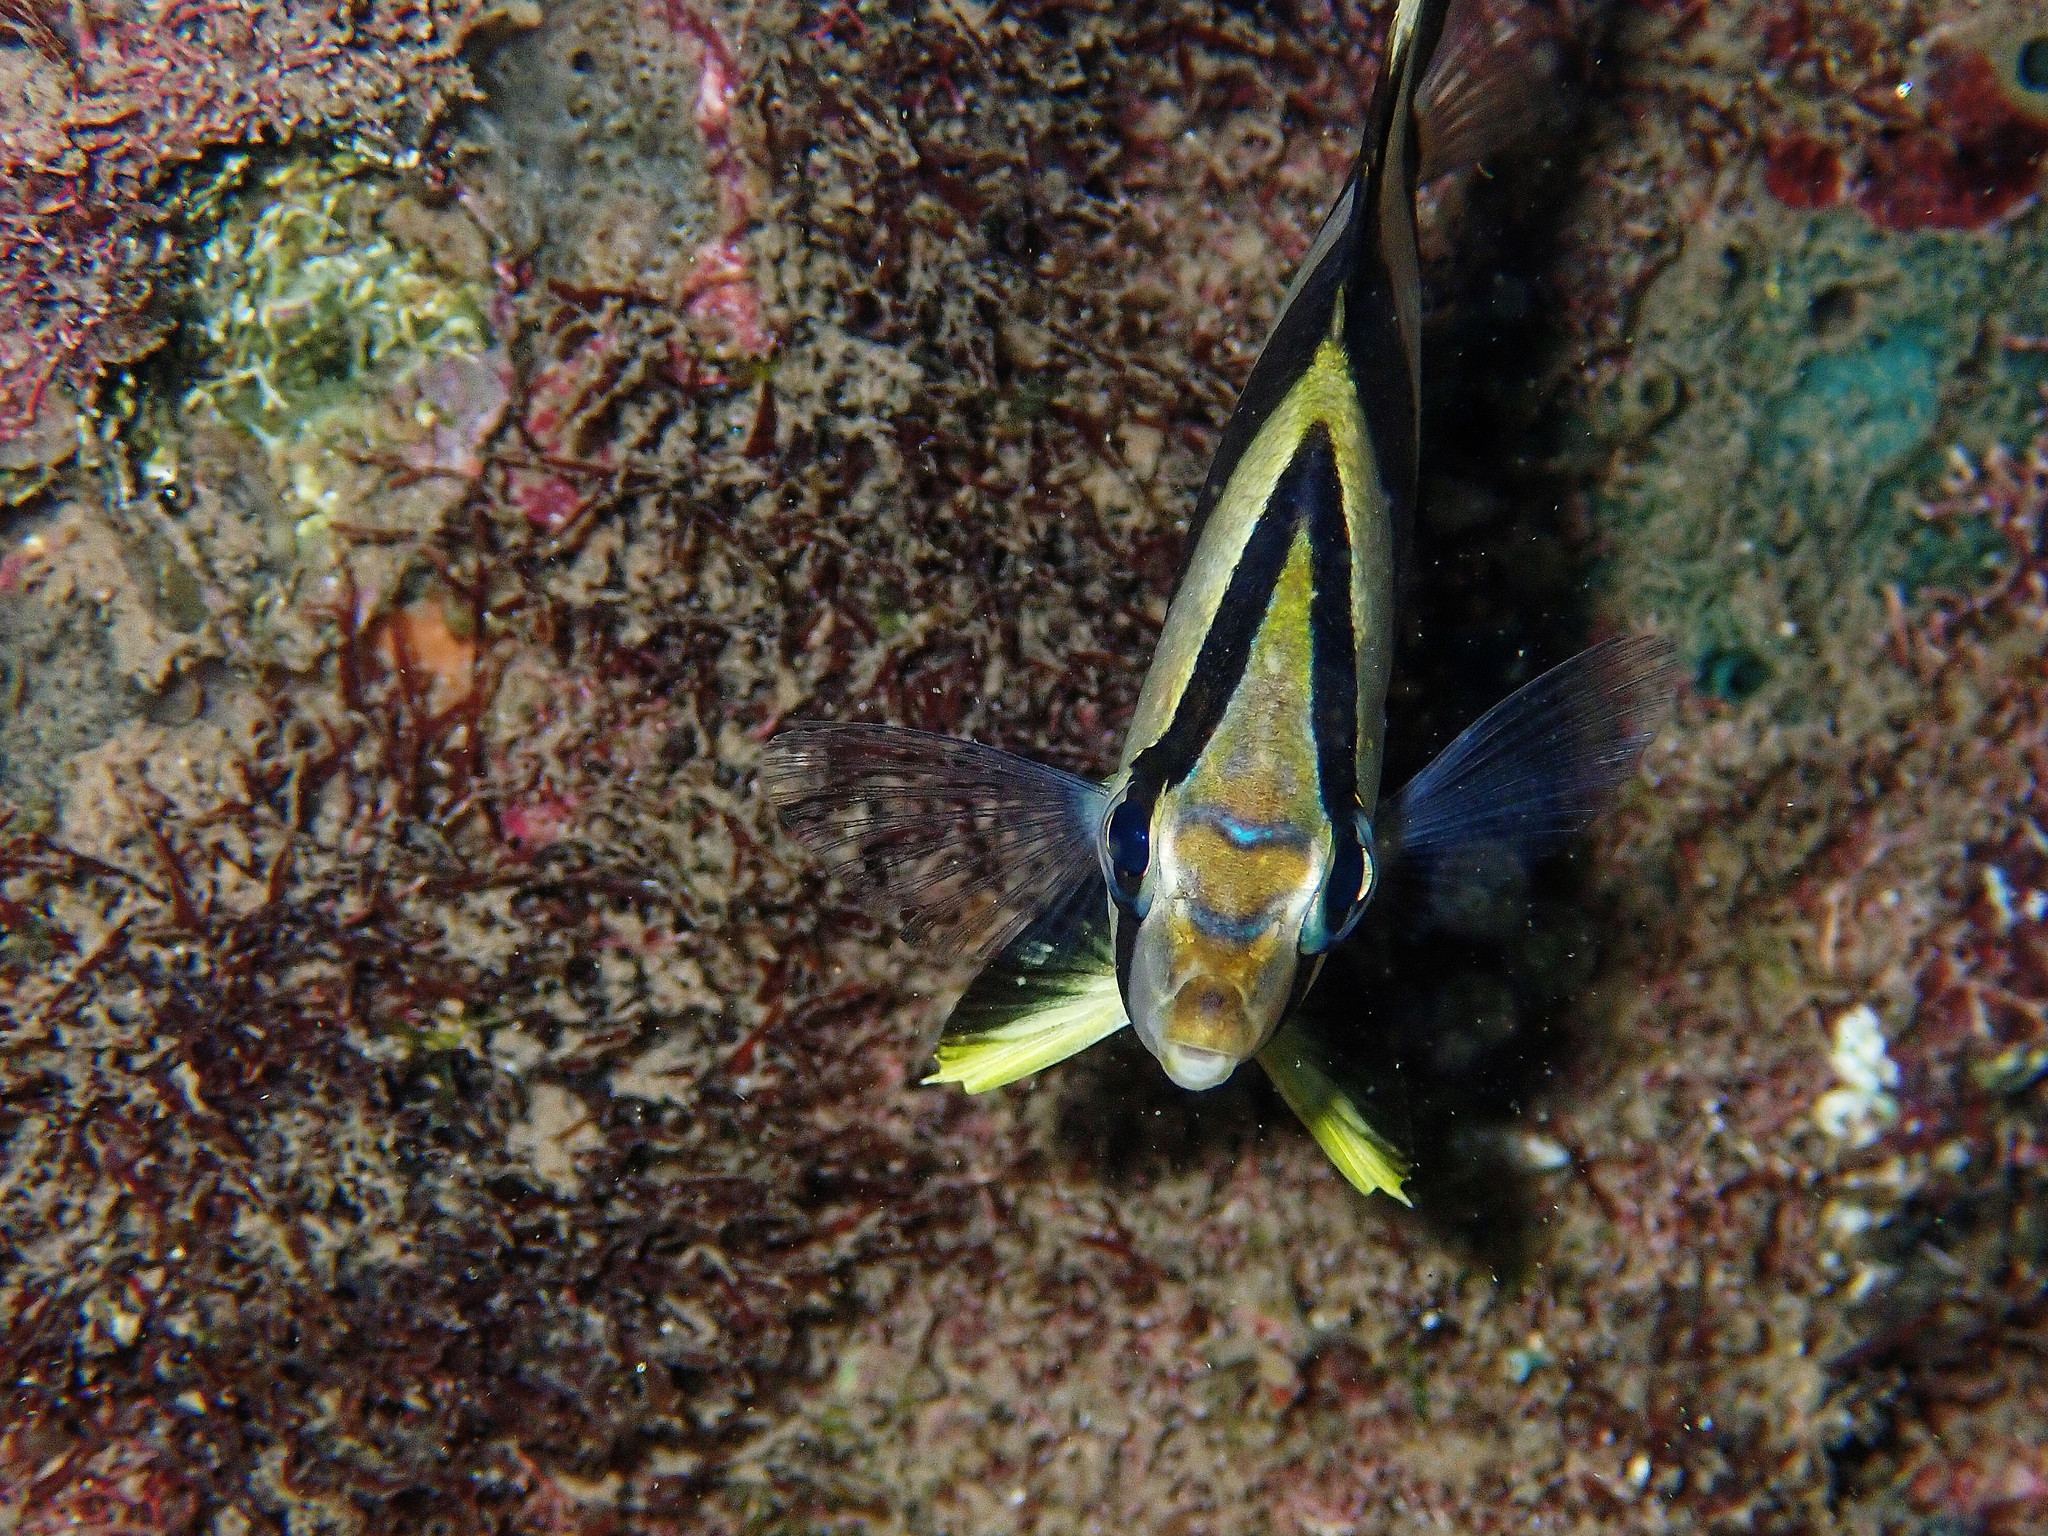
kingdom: Animalia
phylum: Chordata
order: Perciformes
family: Chaetodontidae
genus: Chaetodon
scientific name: Chaetodon striatus
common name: Banded butterflyfish
